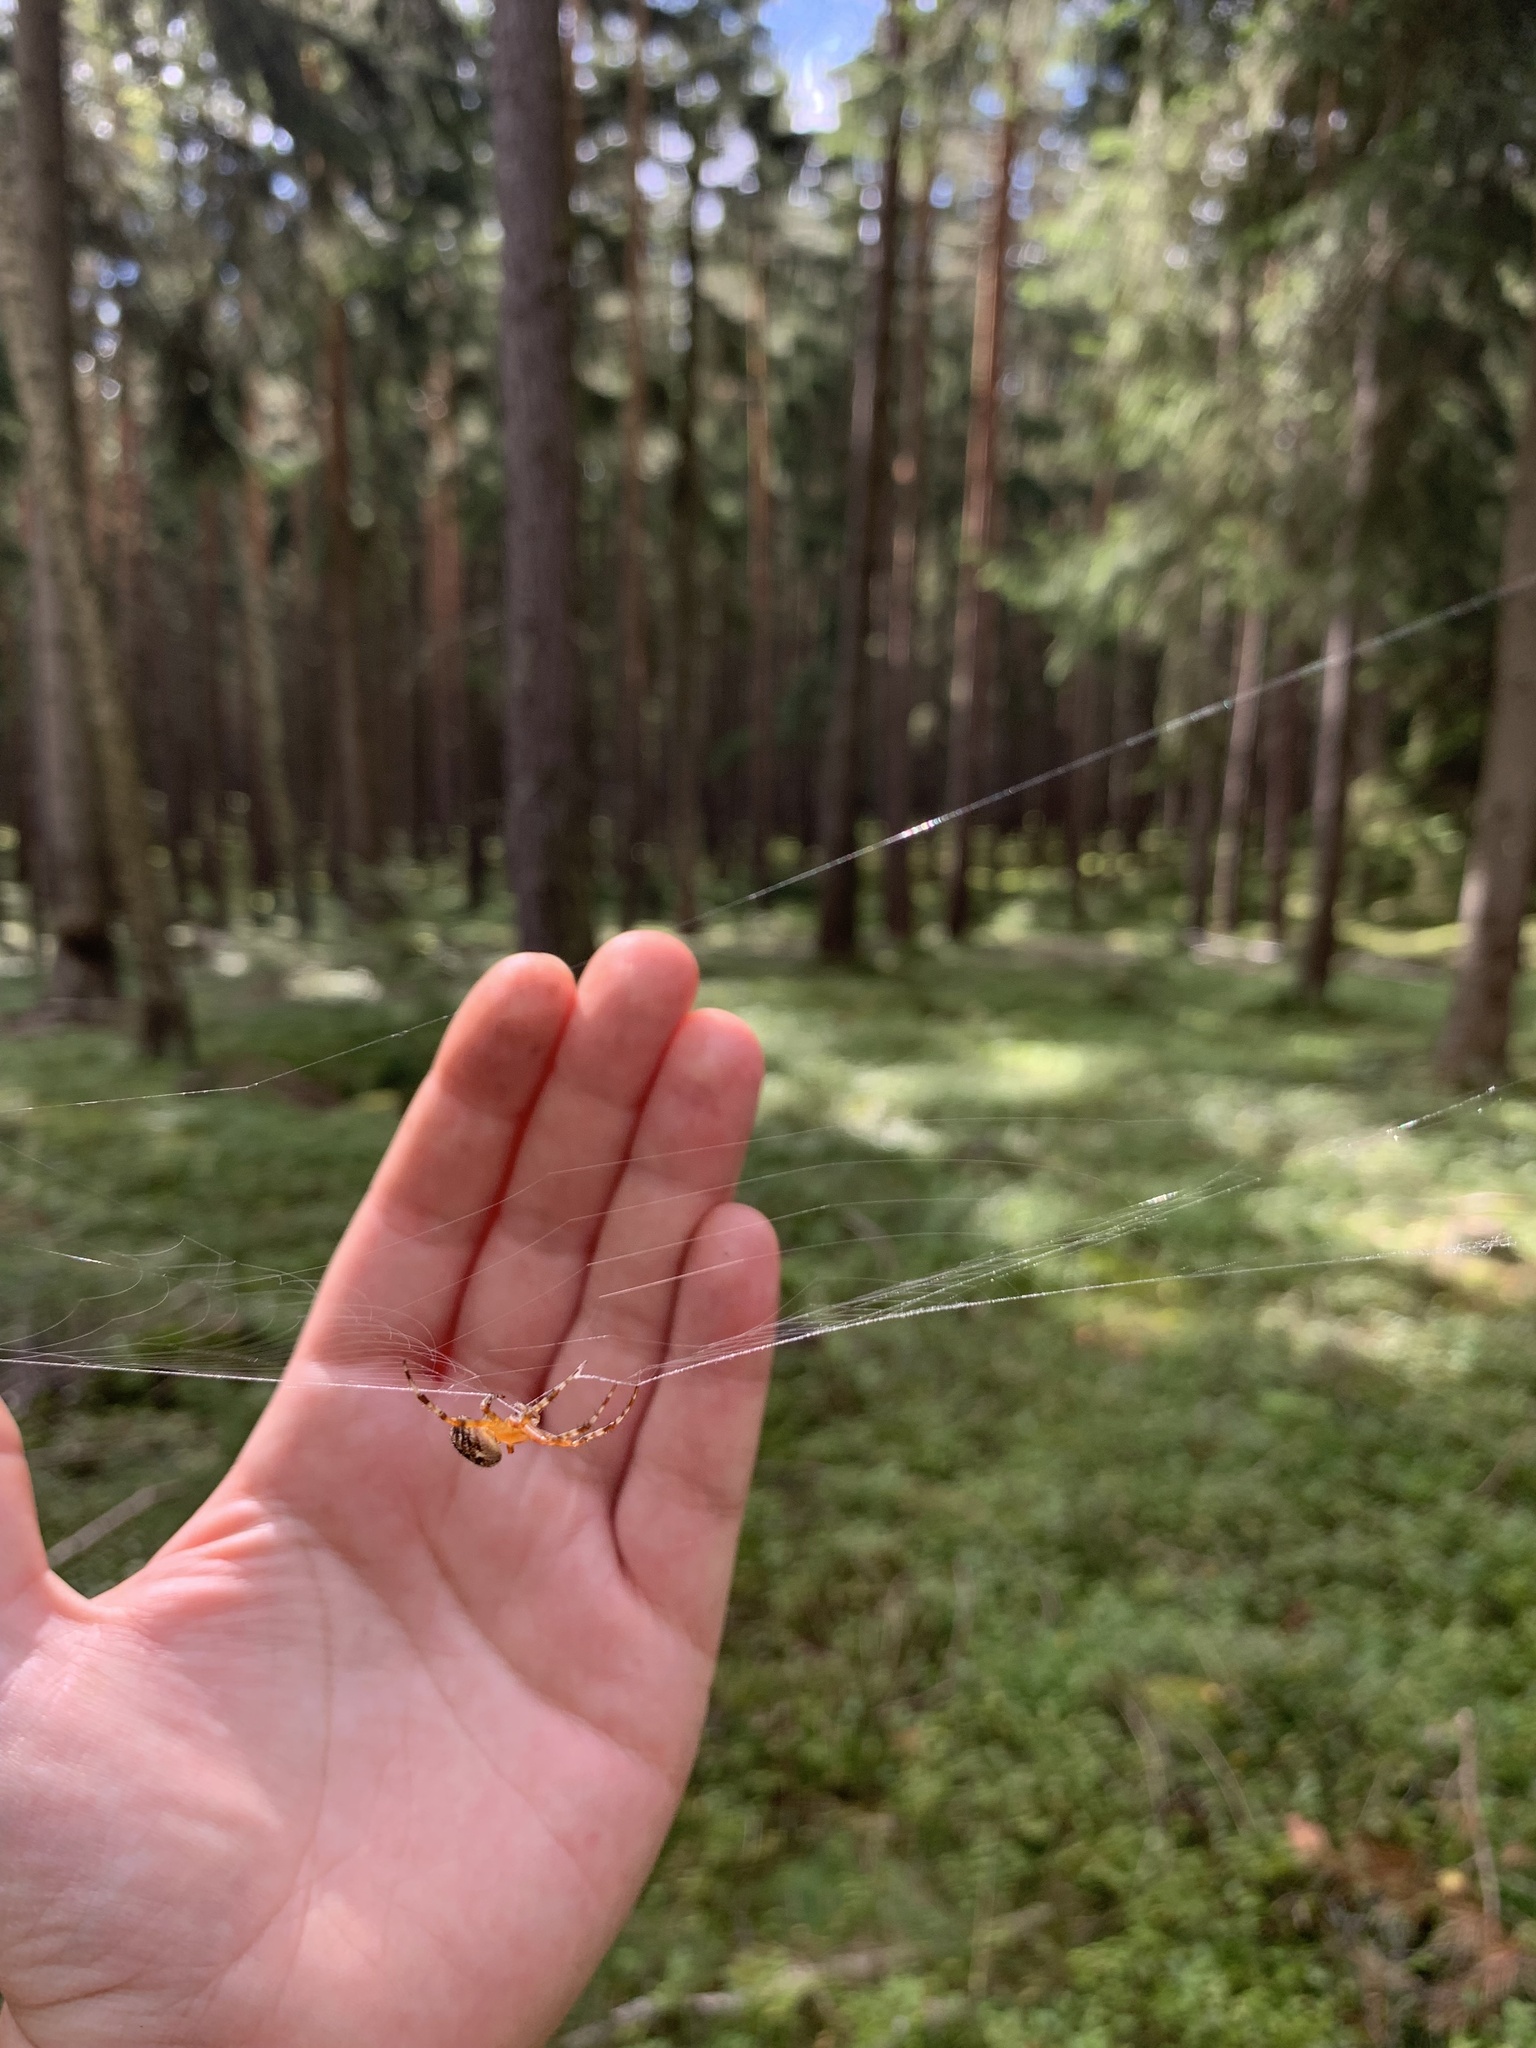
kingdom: Animalia
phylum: Arthropoda
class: Arachnida
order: Araneae
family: Araneidae
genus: Araneus
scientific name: Araneus diadematus
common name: Cross orbweaver
